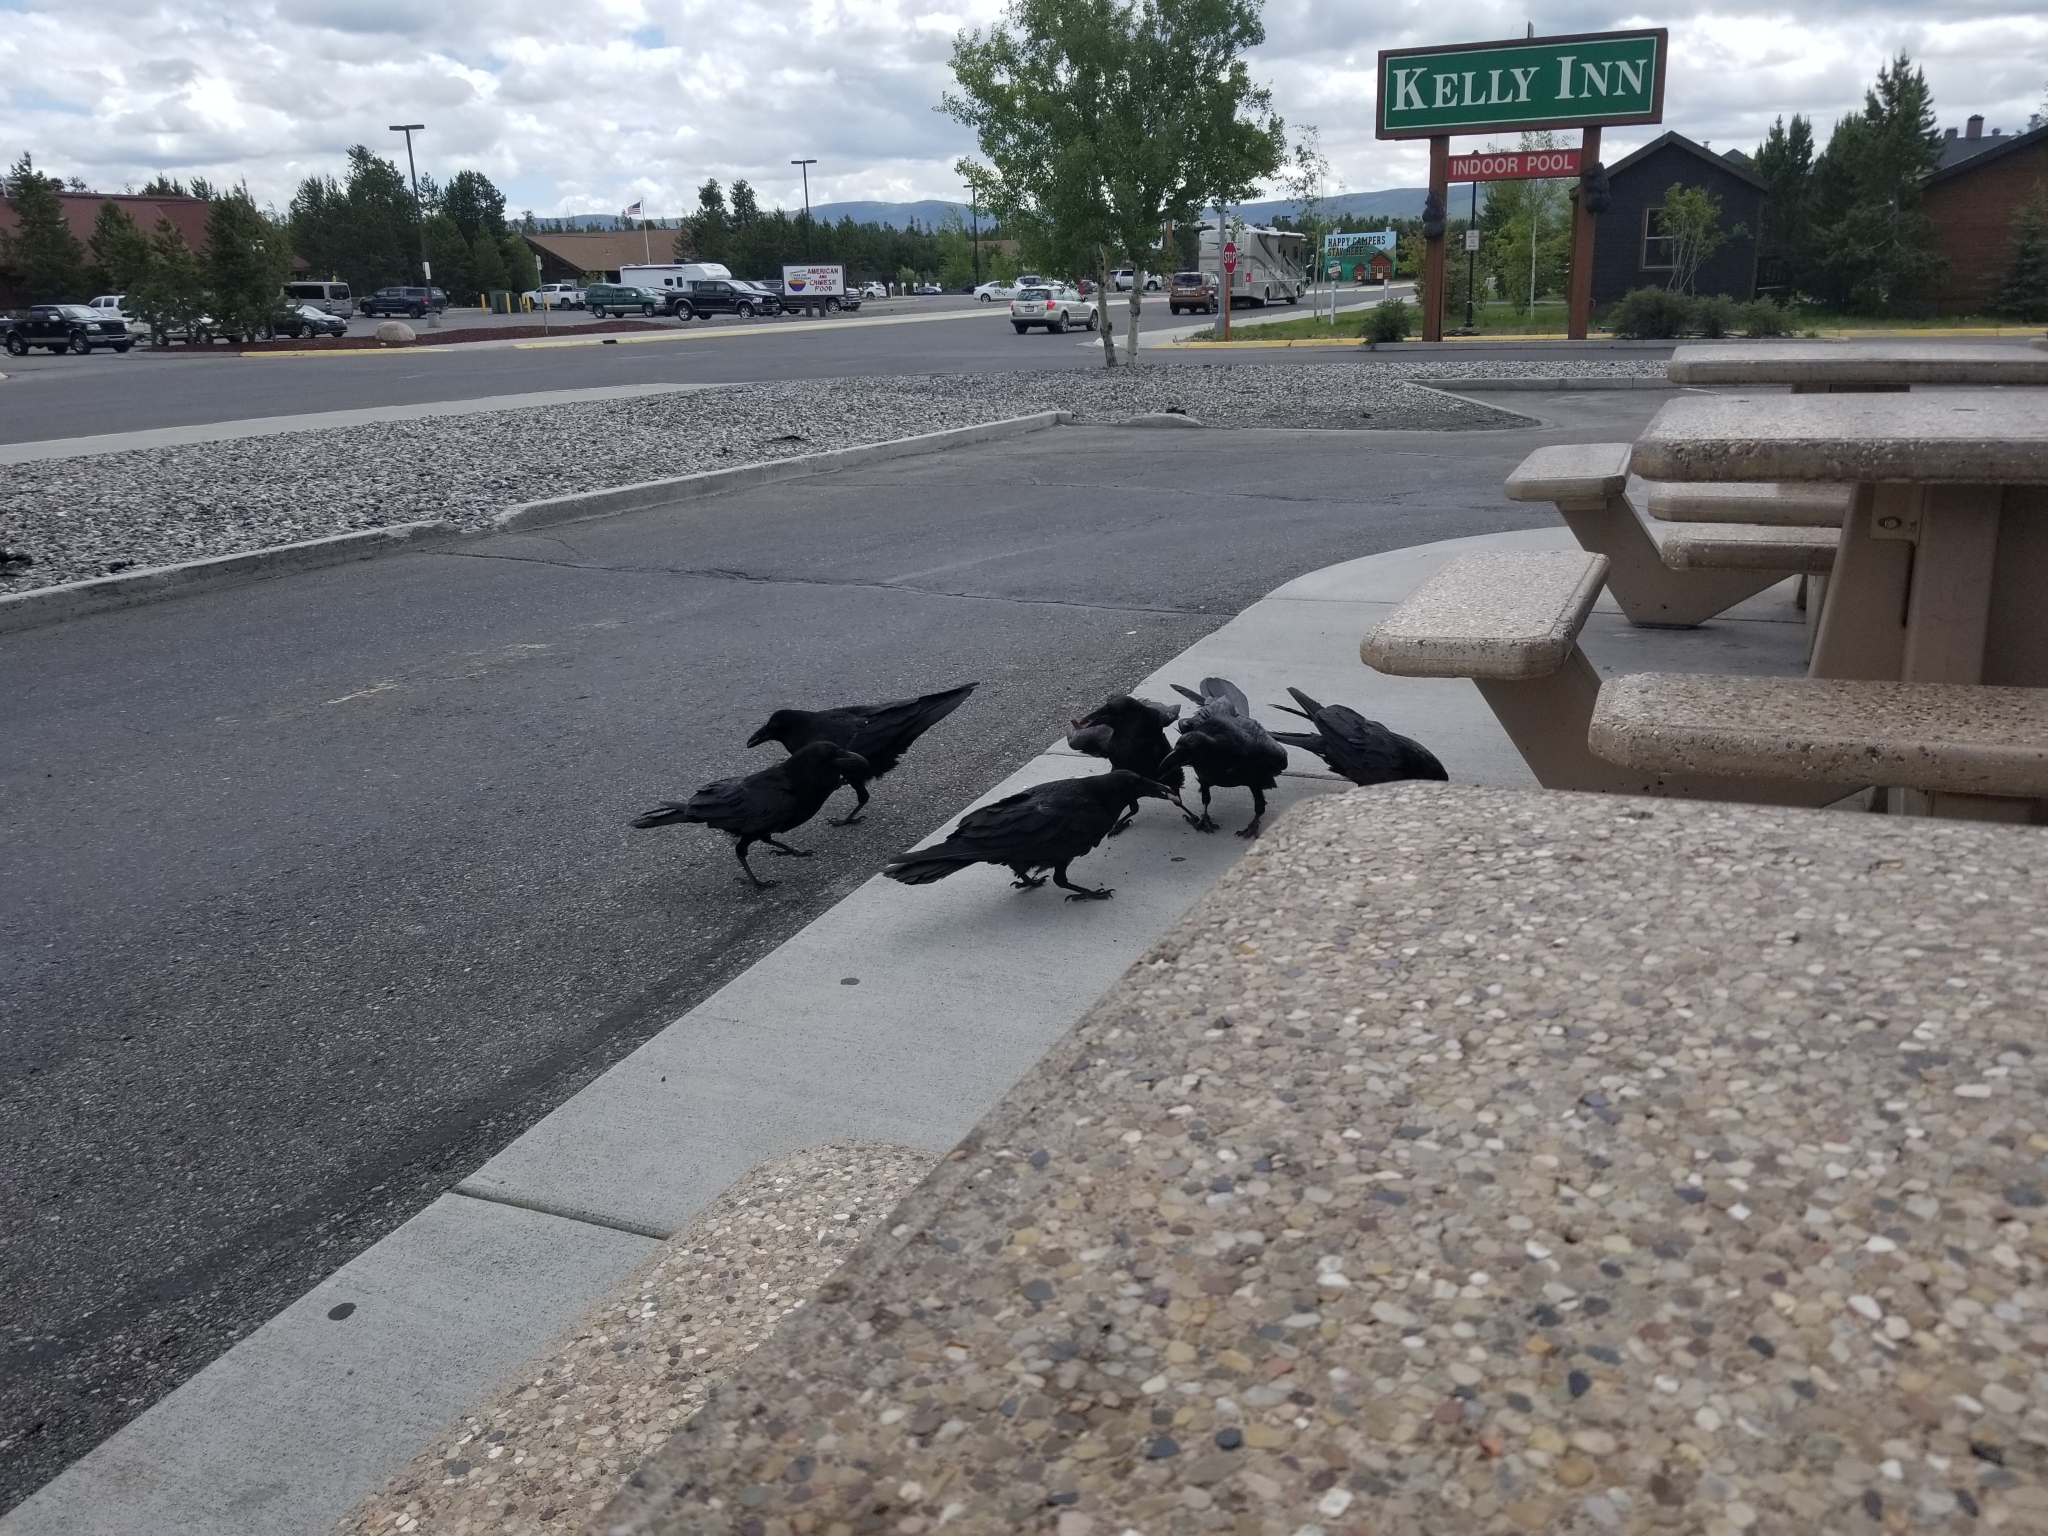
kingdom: Animalia
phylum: Chordata
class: Aves
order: Passeriformes
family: Corvidae
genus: Corvus
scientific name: Corvus corax
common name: Common raven
